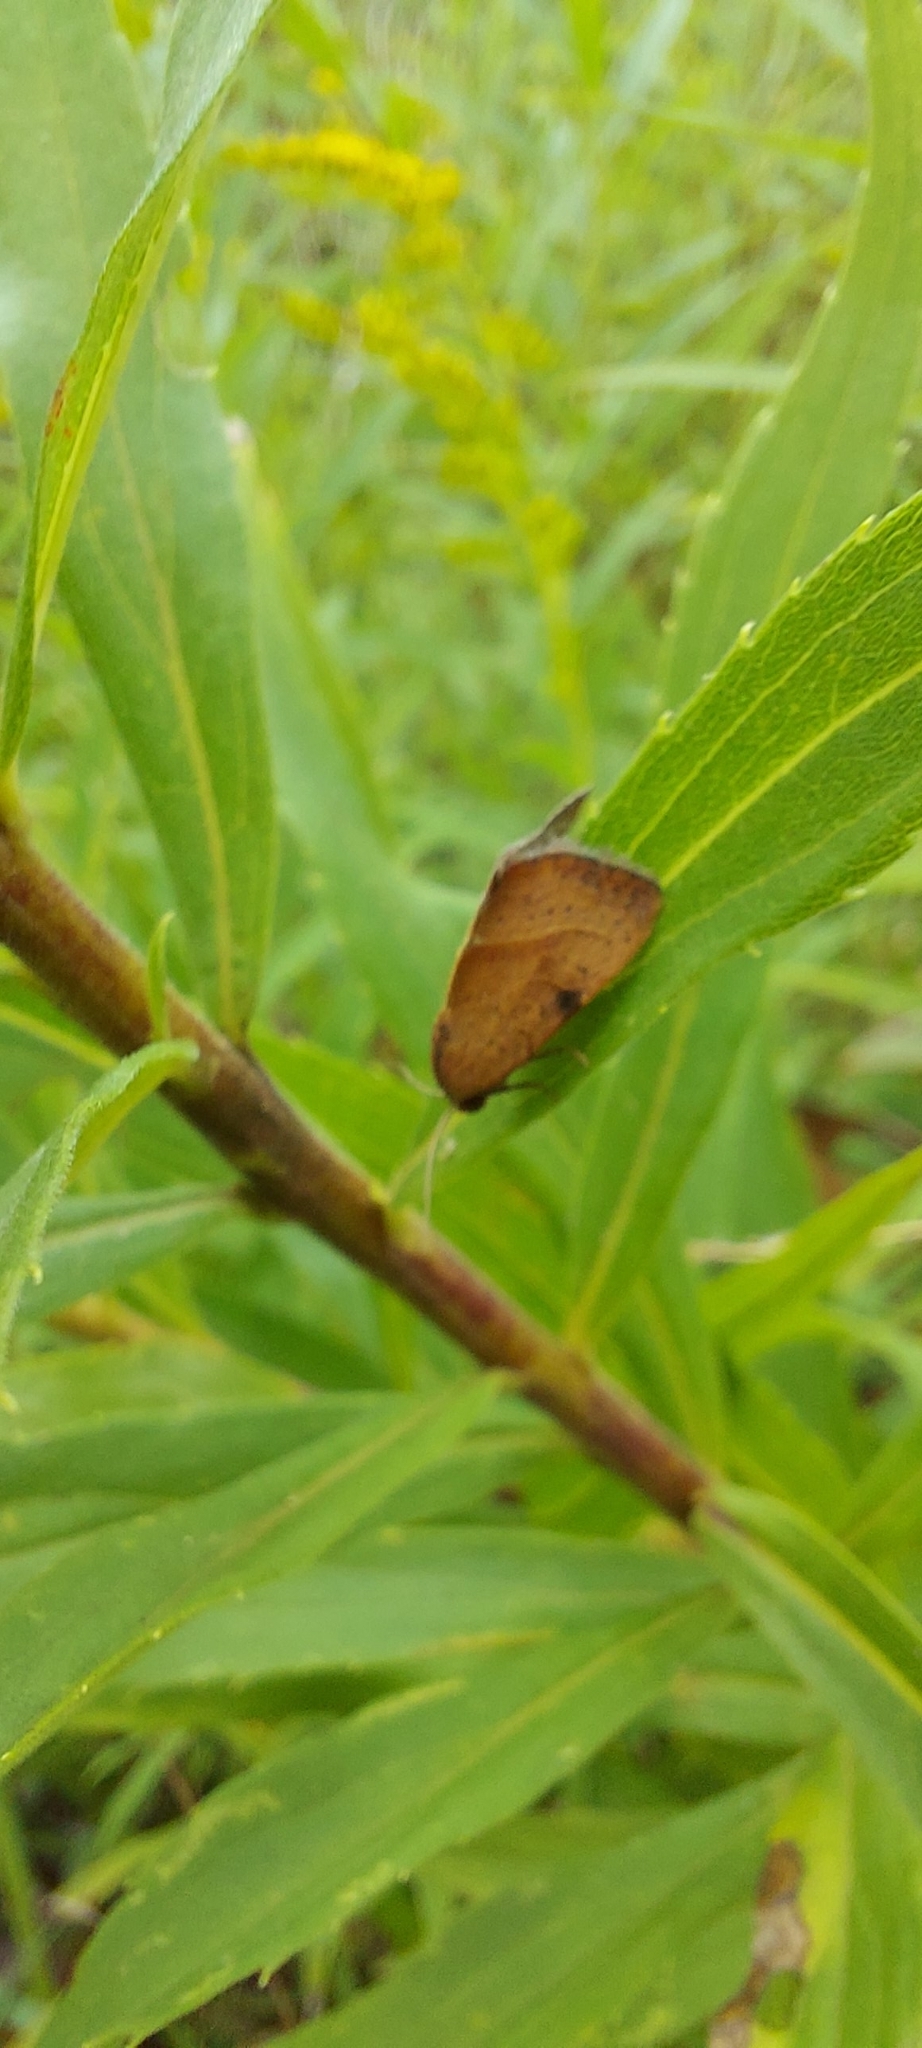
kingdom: Animalia
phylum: Arthropoda
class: Insecta
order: Lepidoptera
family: Noctuidae
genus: Galgula
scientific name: Galgula partita
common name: Wedgeling
